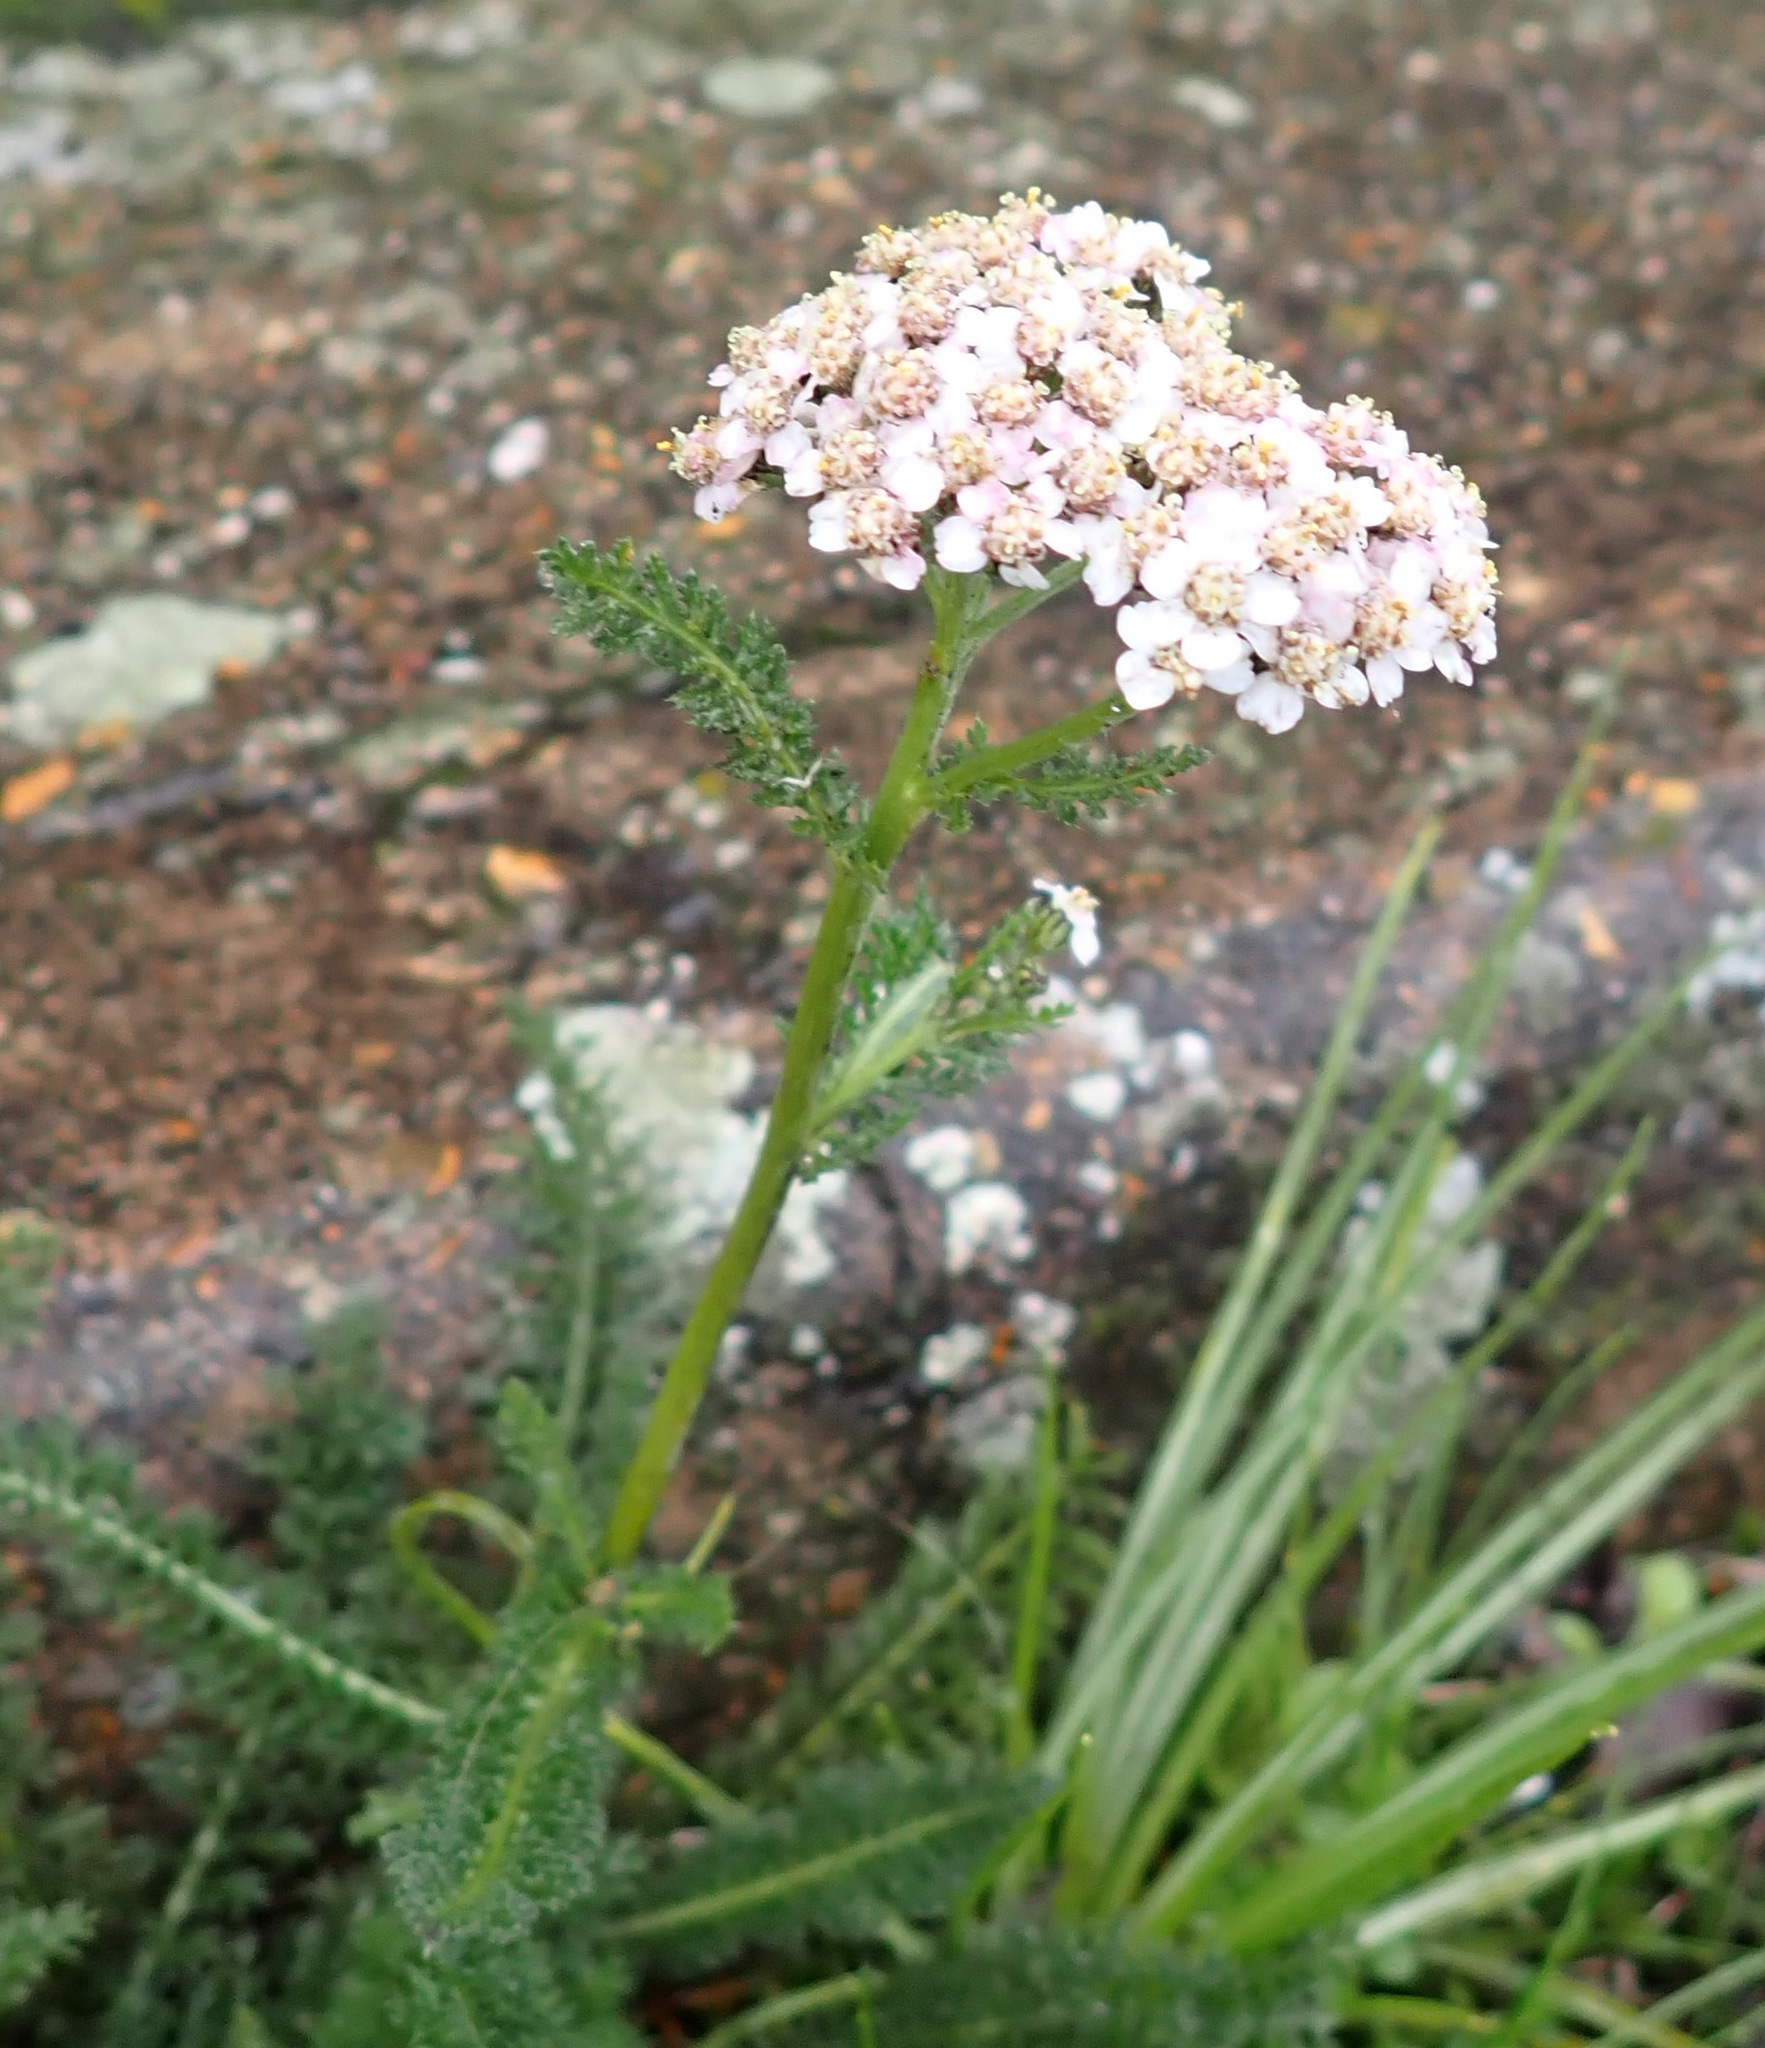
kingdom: Plantae
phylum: Tracheophyta
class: Magnoliopsida
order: Asterales
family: Asteraceae
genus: Achillea
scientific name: Achillea millefolium
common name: Yarrow
